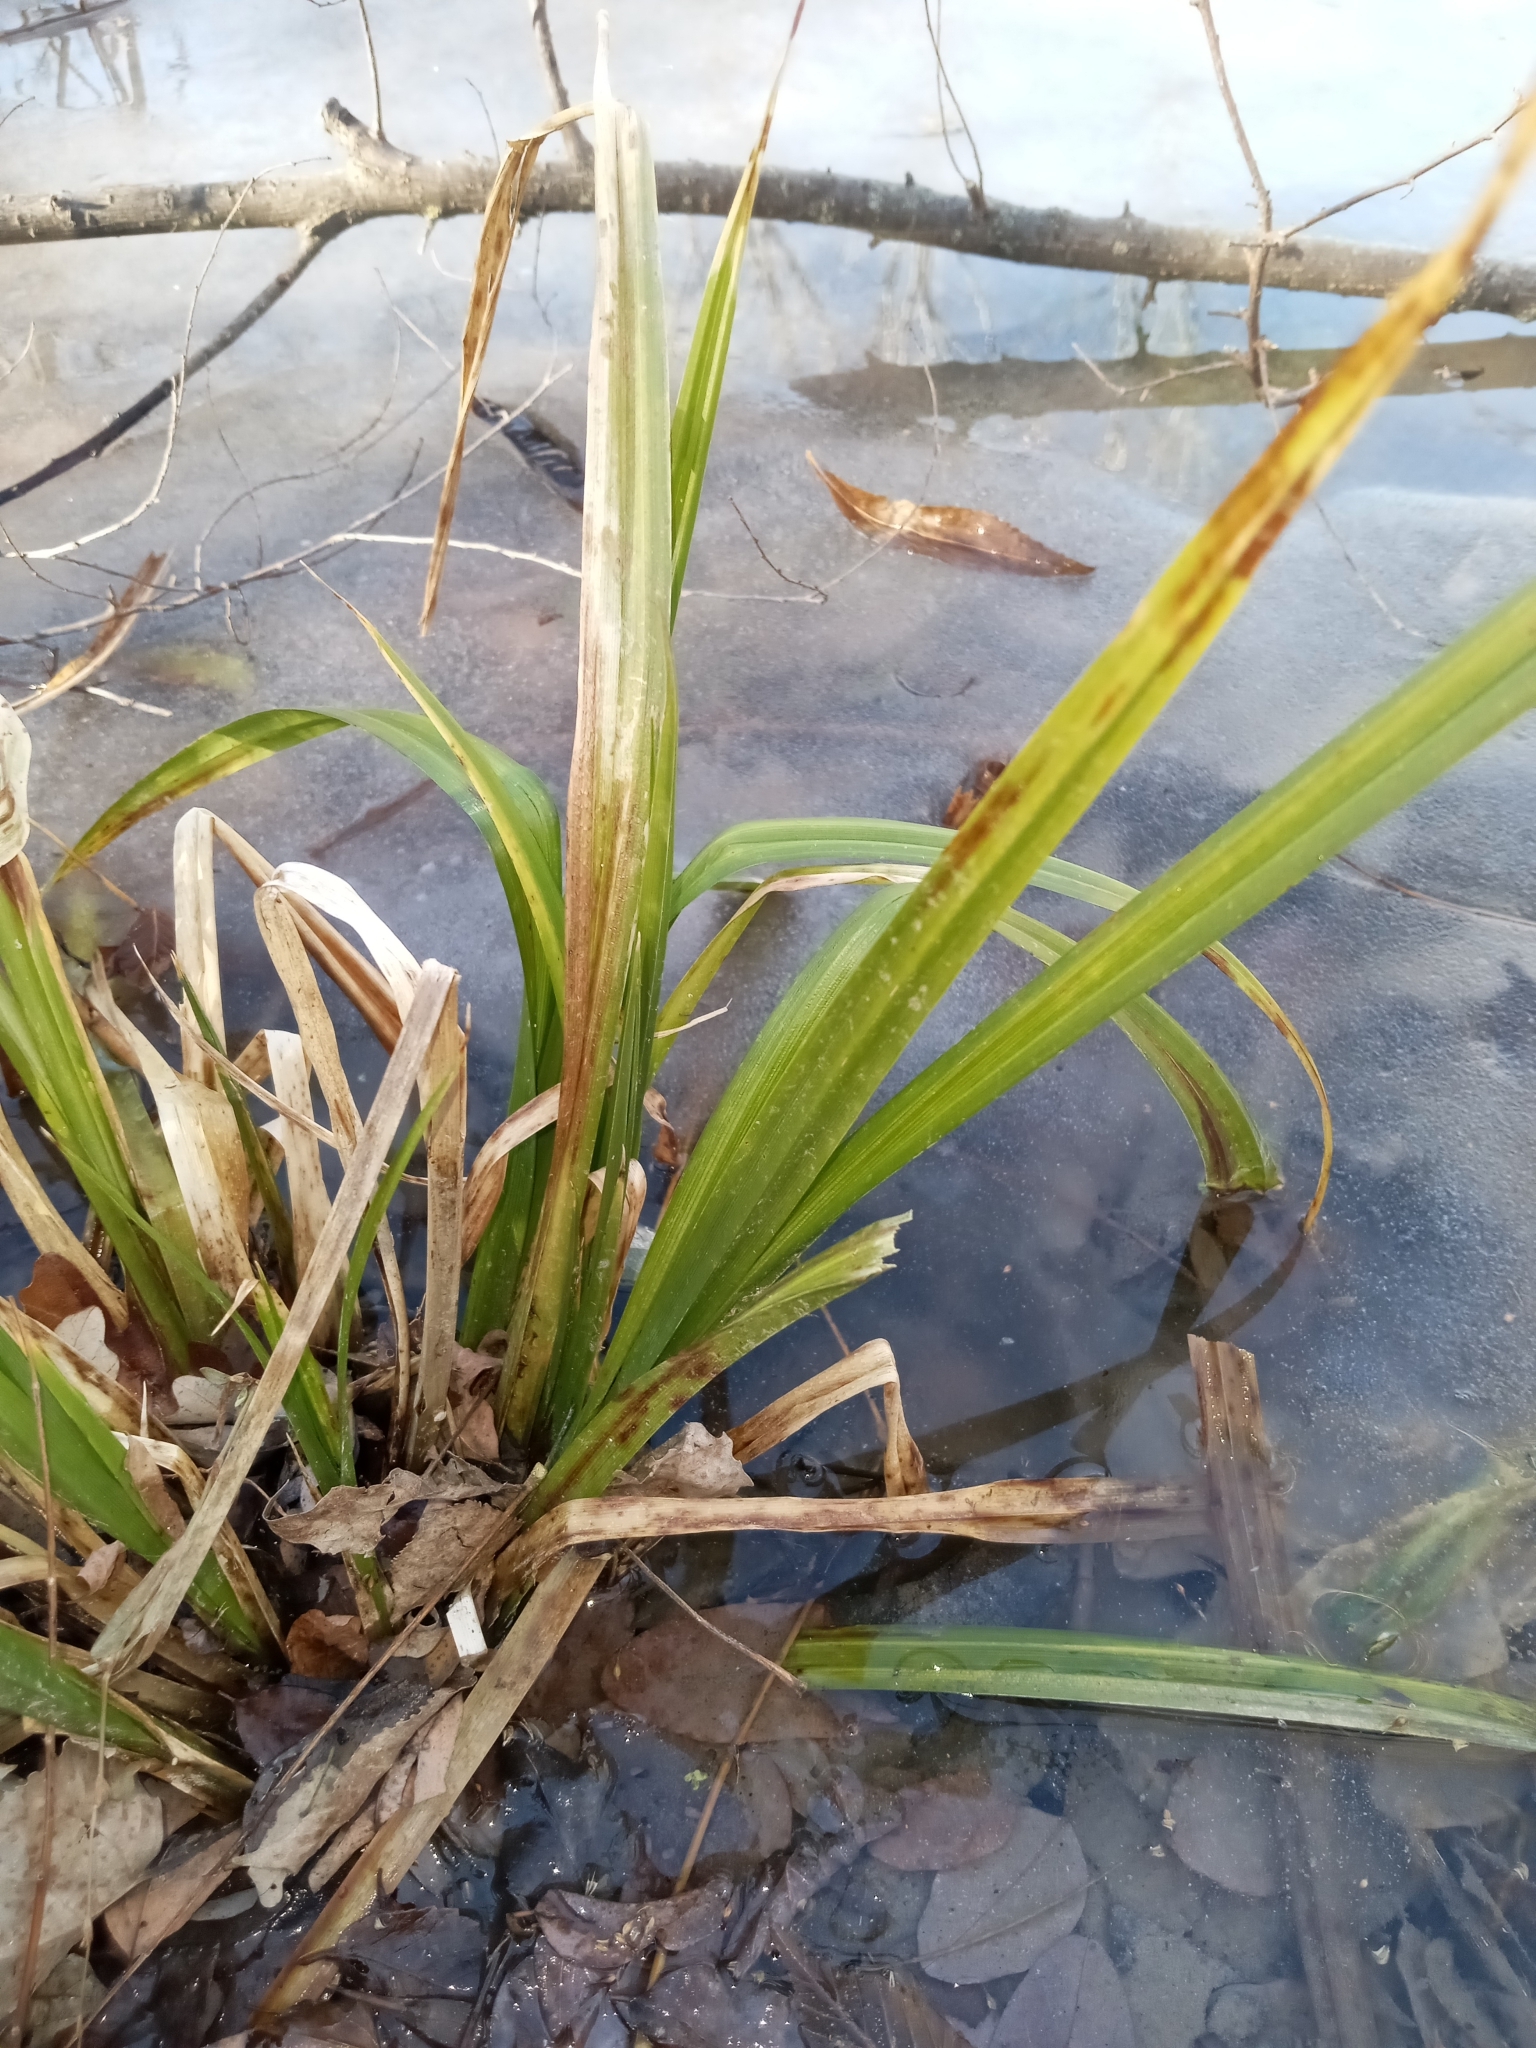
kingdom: Plantae
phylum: Tracheophyta
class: Liliopsida
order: Poales
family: Cyperaceae
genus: Carex
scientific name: Carex comosa
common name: Bristly sedge
